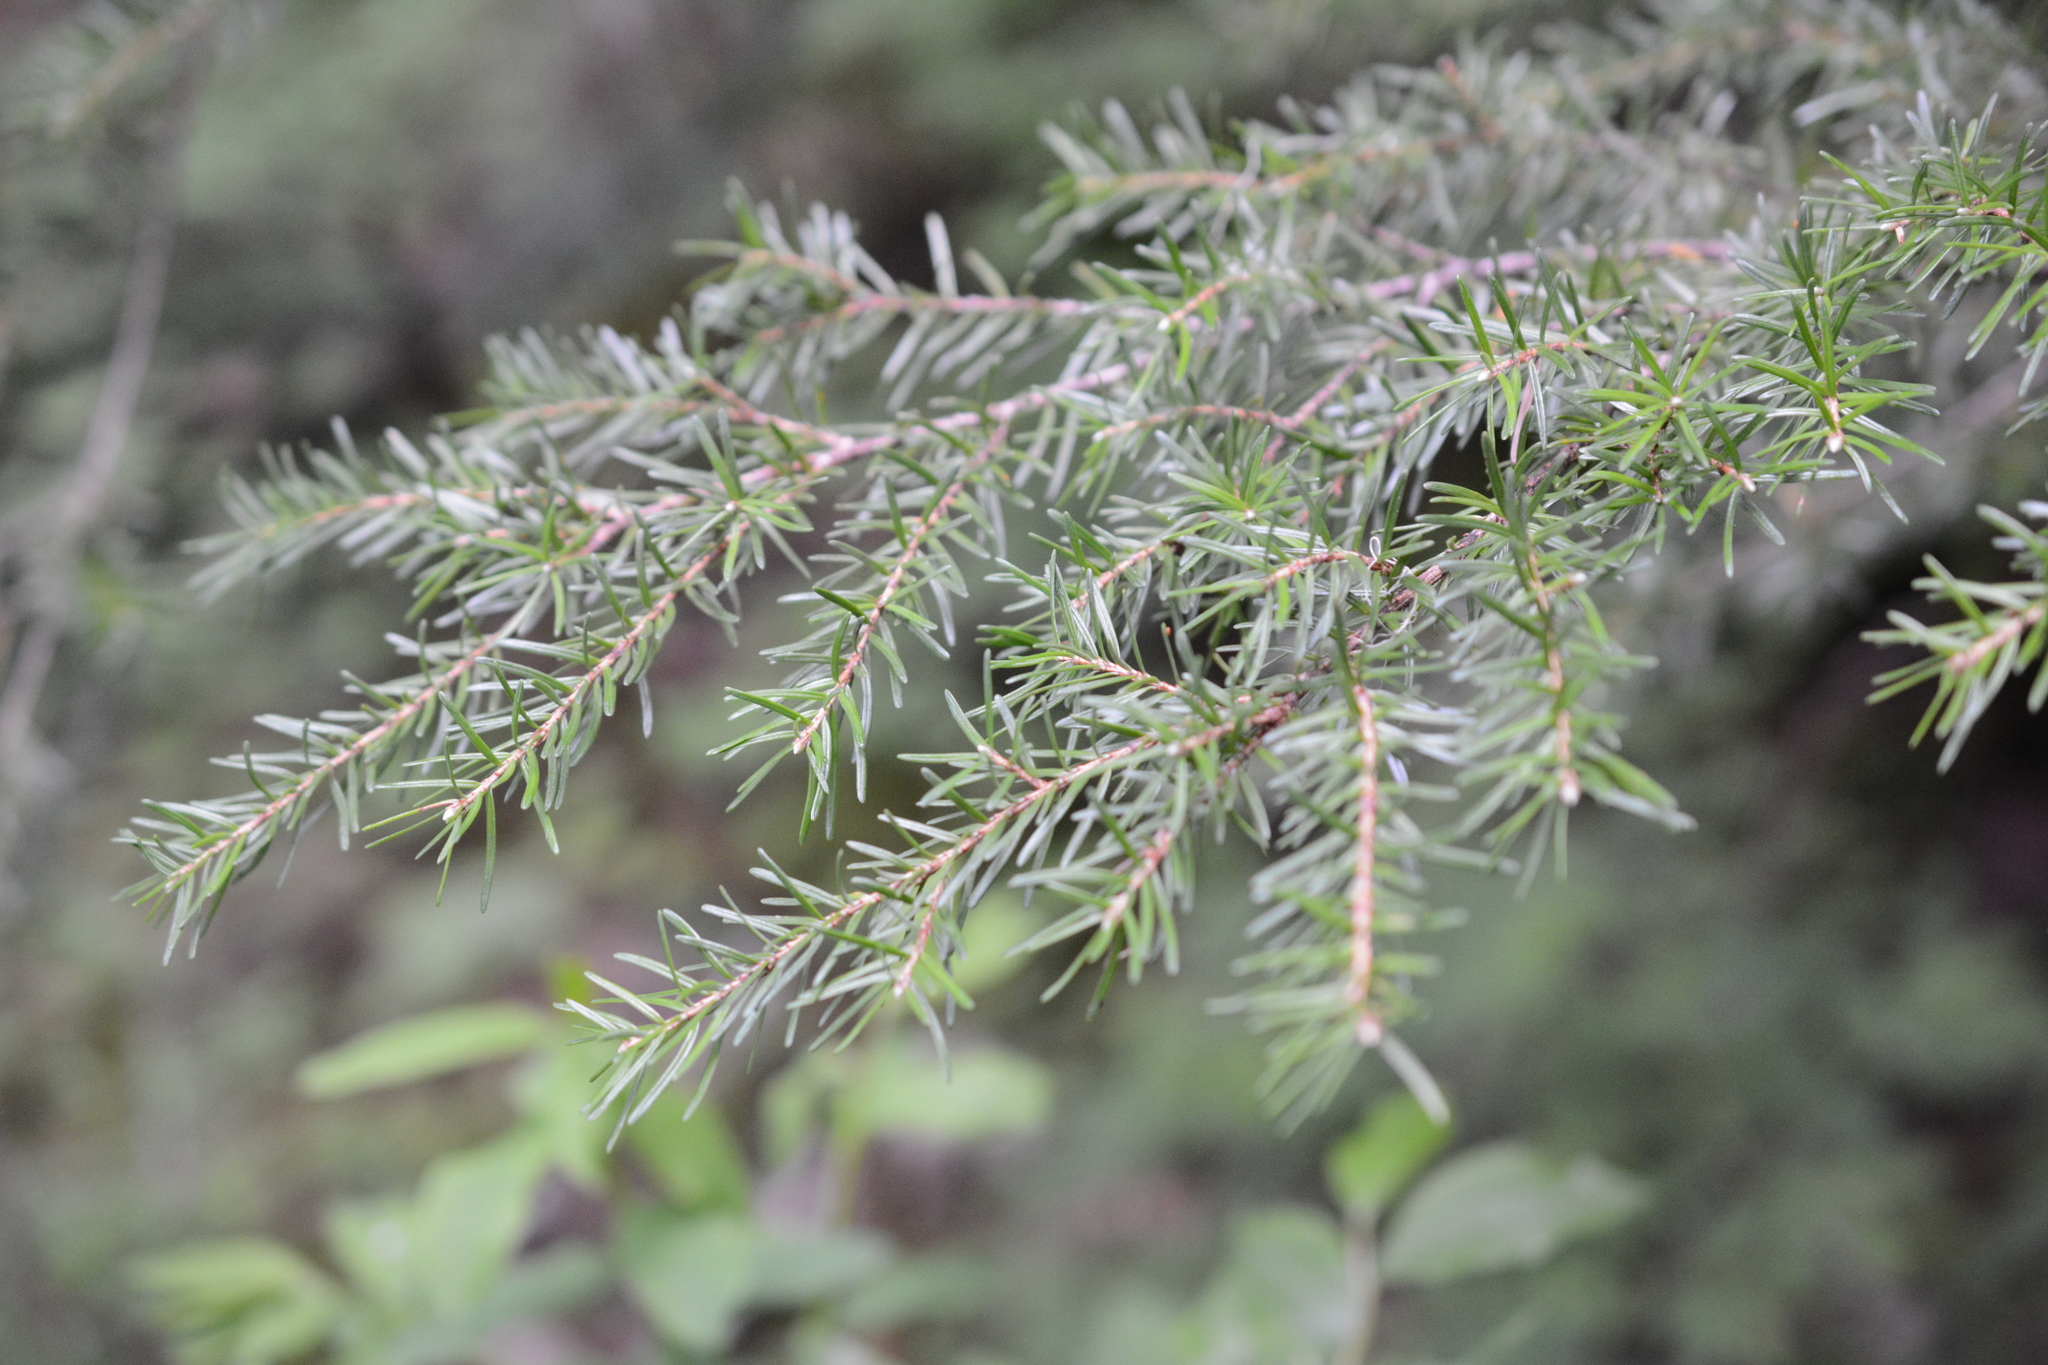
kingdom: Plantae
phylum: Tracheophyta
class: Pinopsida
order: Pinales
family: Pinaceae
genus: Tsuga
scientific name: Tsuga mertensiana
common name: Mountain hemlock
